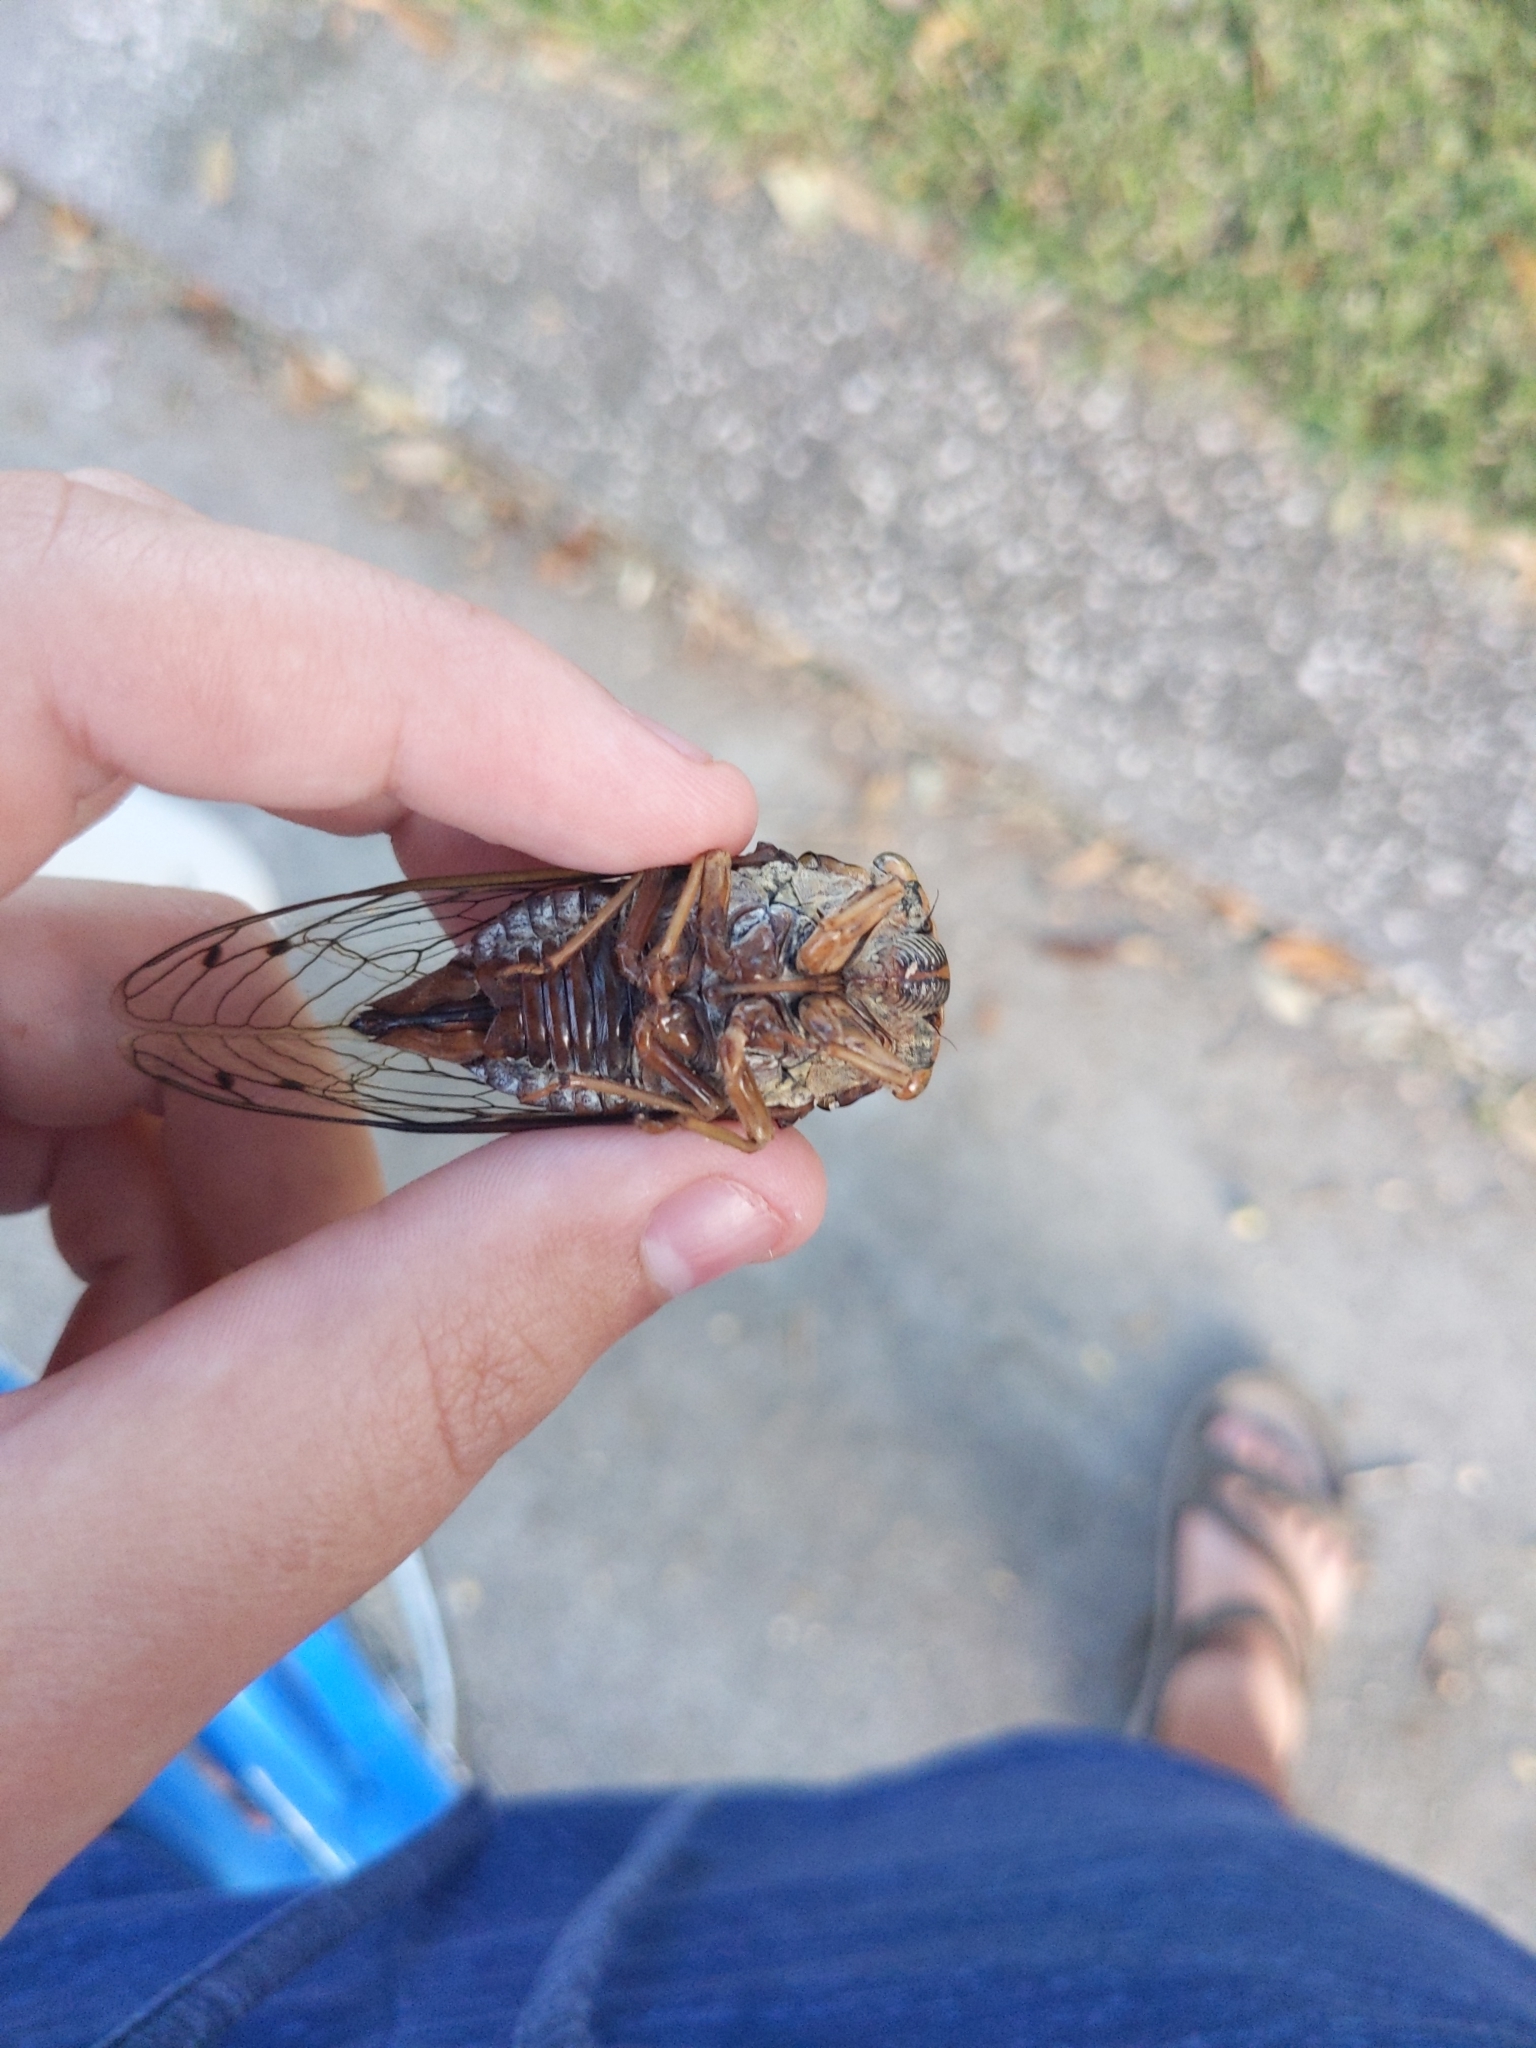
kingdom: Animalia
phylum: Arthropoda
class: Insecta
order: Hemiptera
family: Cicadidae
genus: Megatibicen
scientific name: Megatibicen resh
